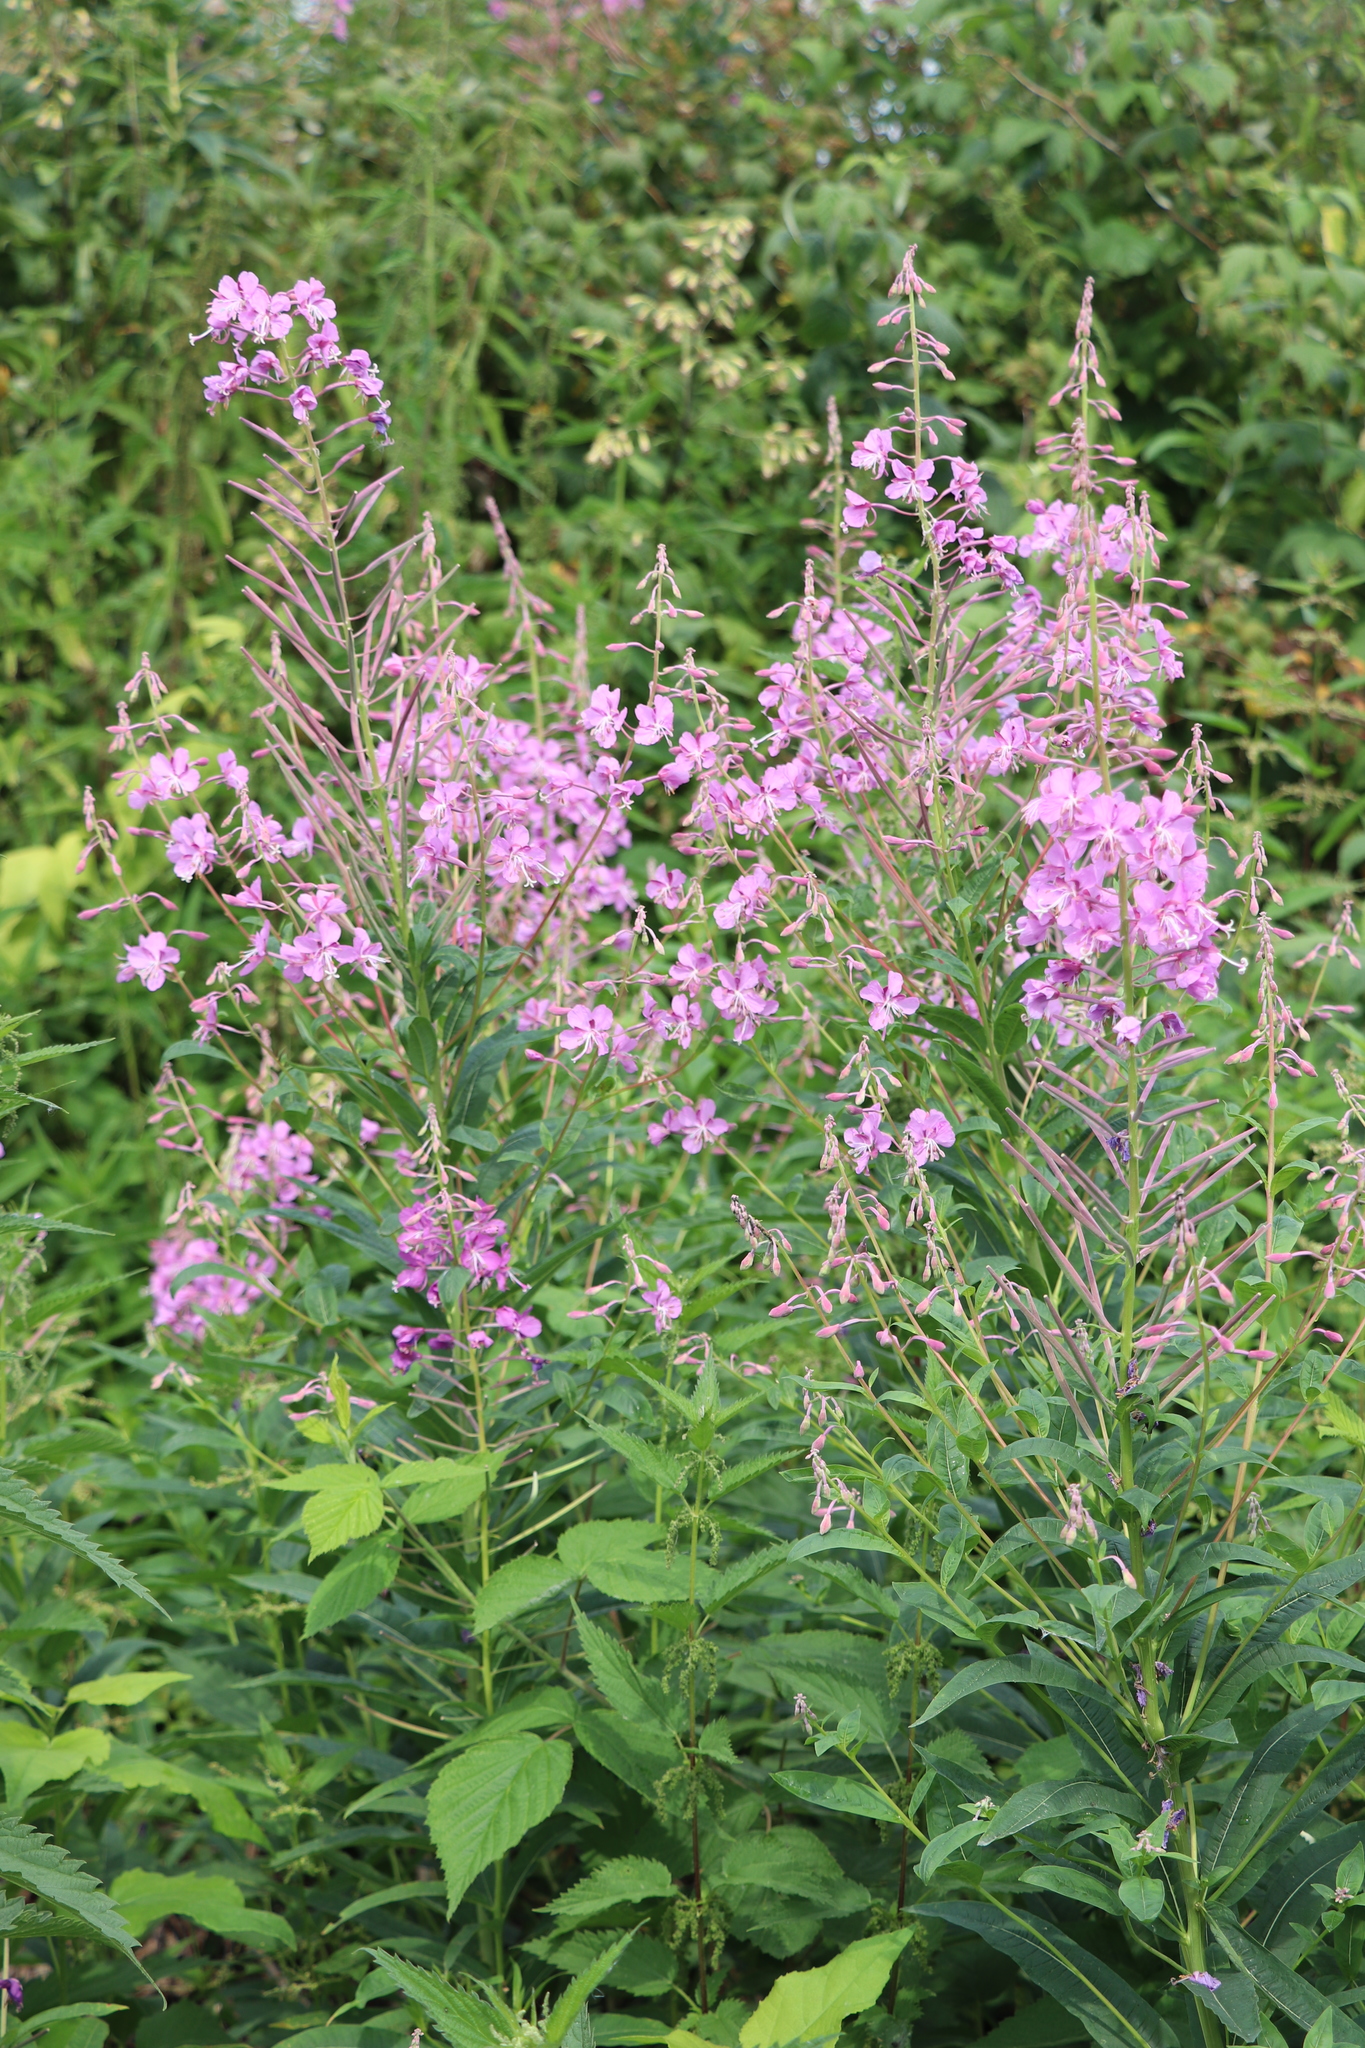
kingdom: Plantae
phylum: Tracheophyta
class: Magnoliopsida
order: Myrtales
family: Onagraceae
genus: Chamaenerion
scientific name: Chamaenerion angustifolium
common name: Fireweed
